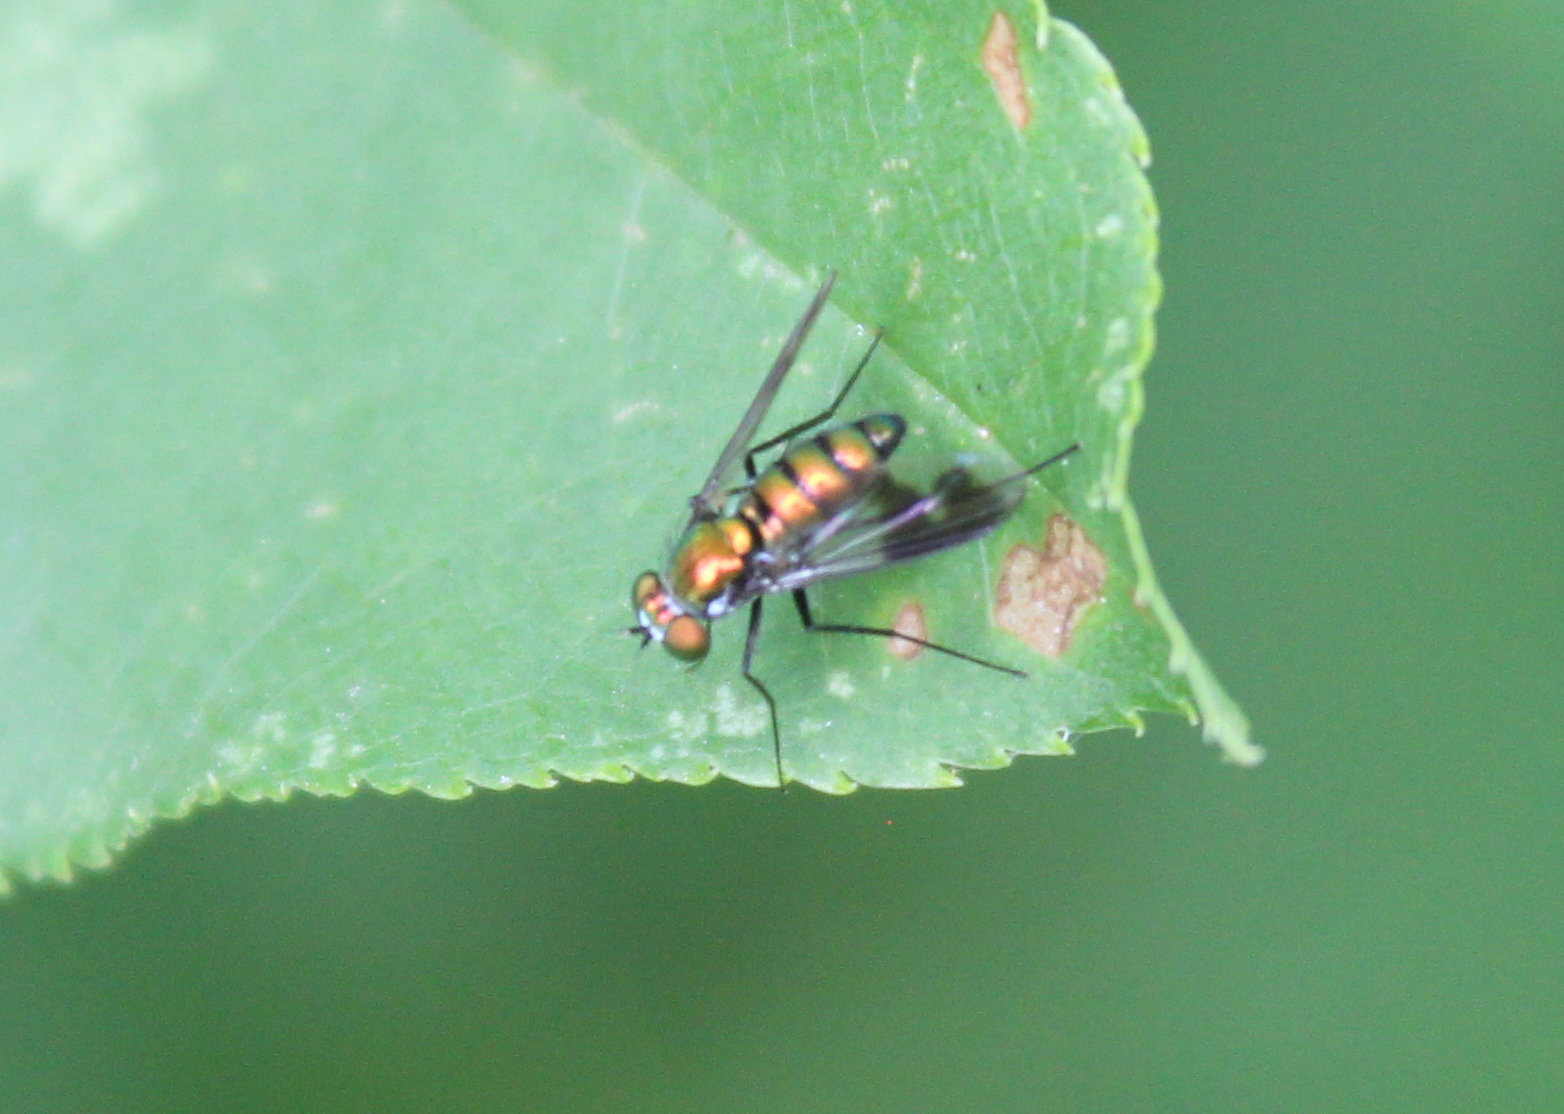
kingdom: Animalia
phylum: Arthropoda
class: Insecta
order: Diptera
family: Dolichopodidae
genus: Condylostylus
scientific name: Condylostylus patibulatus
